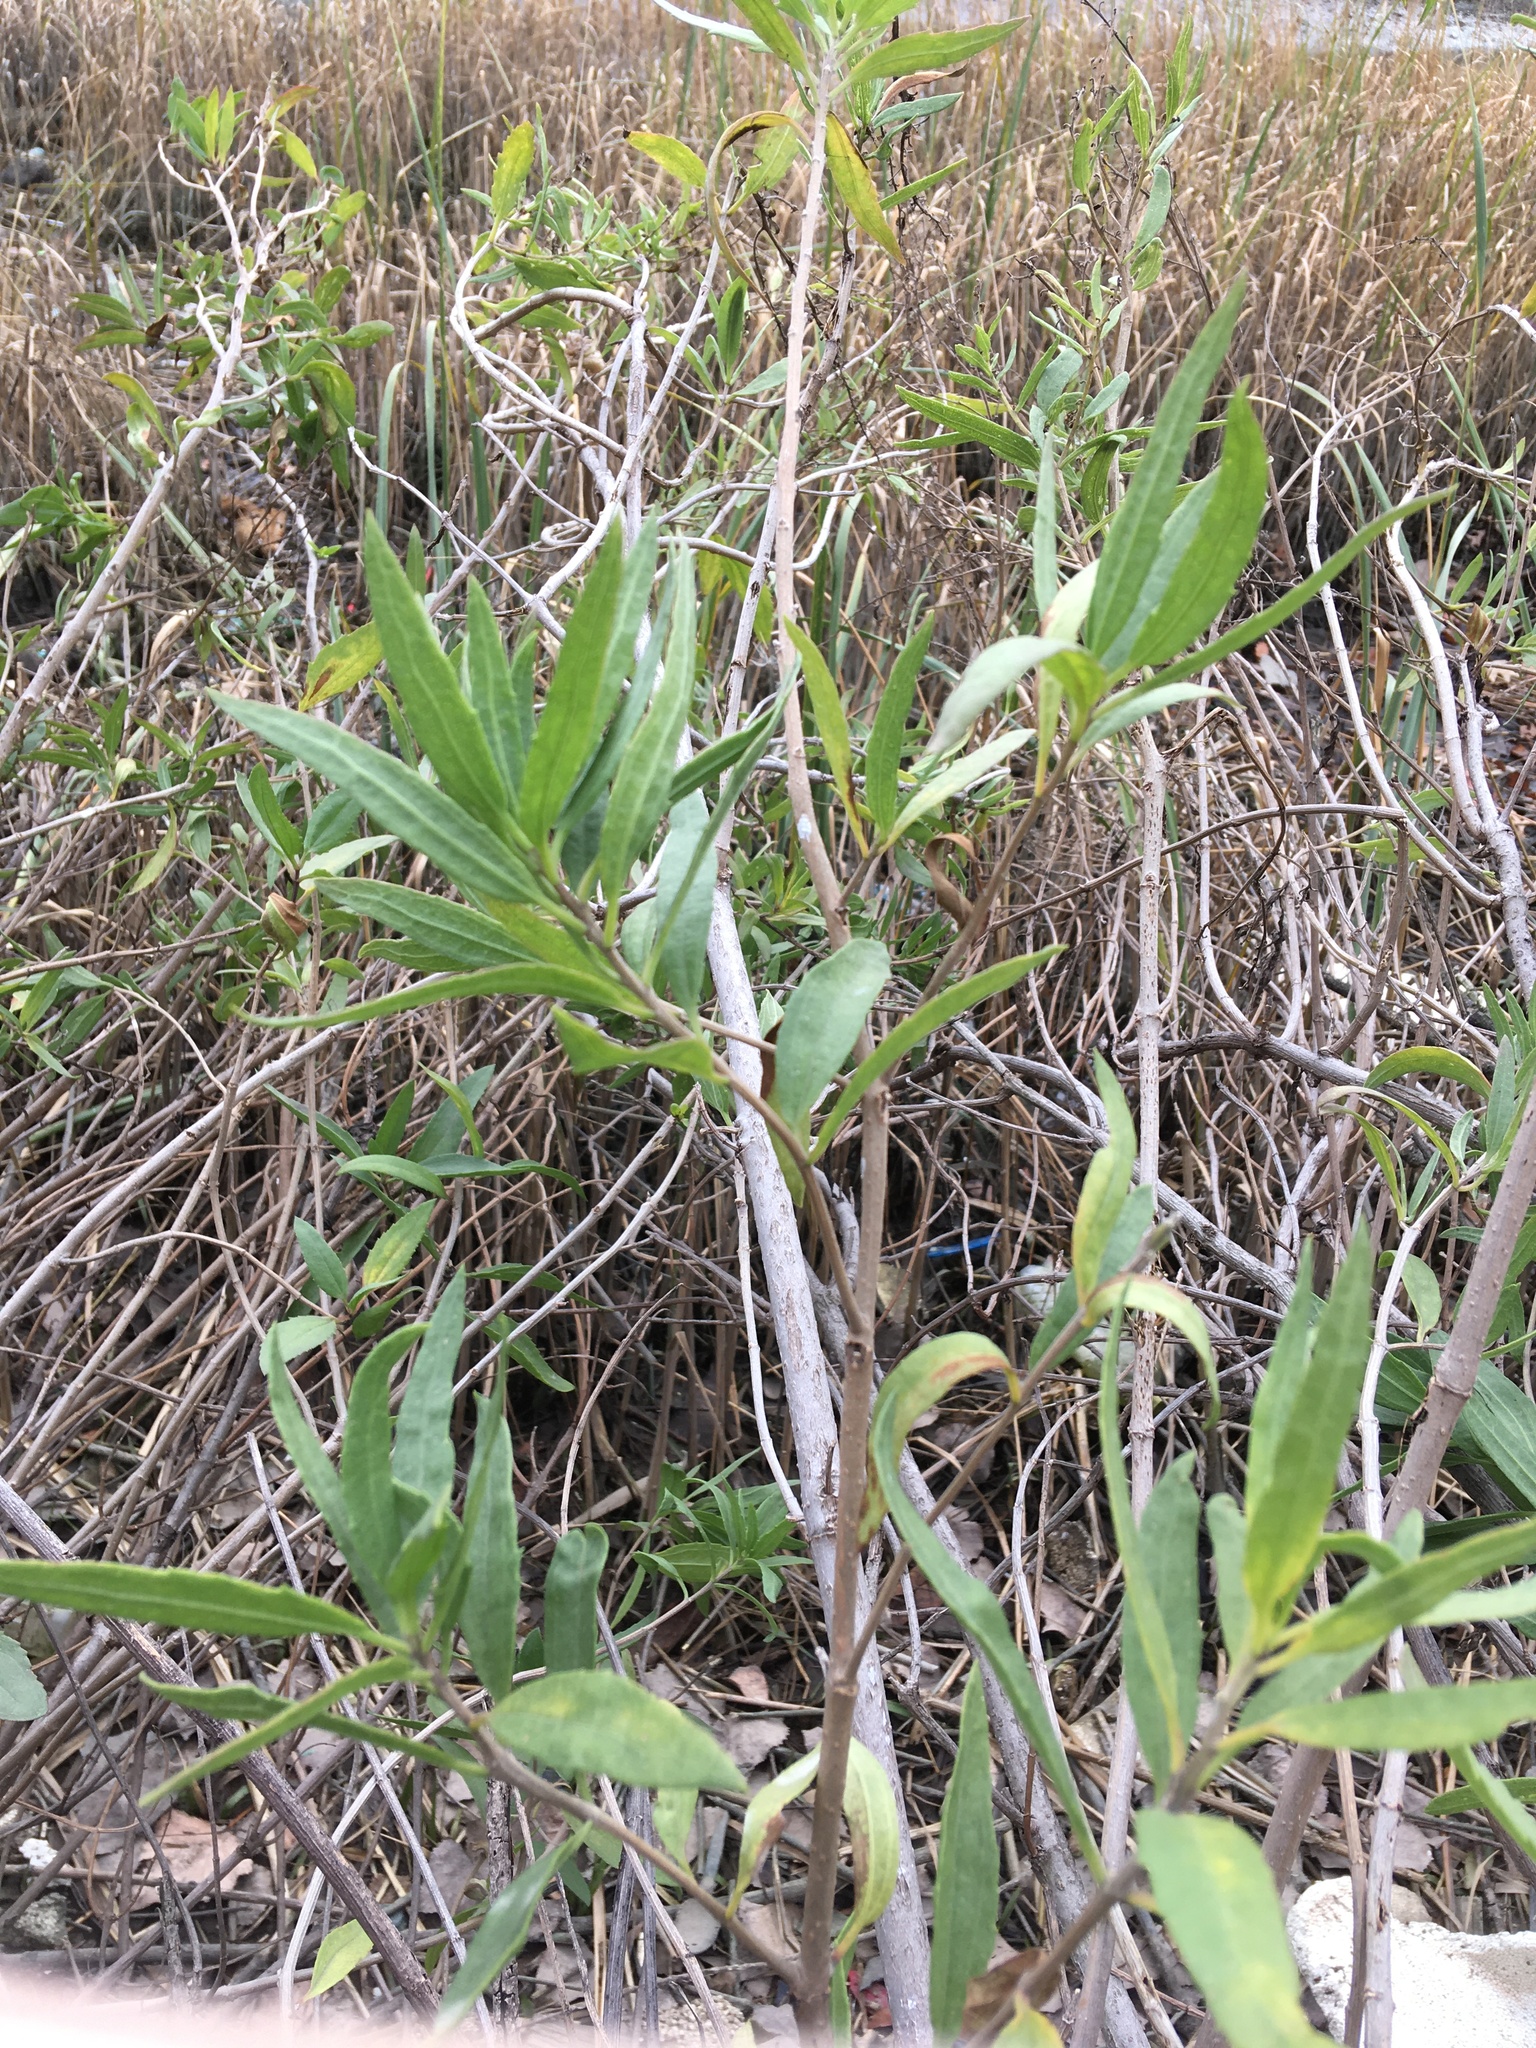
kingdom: Plantae
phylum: Tracheophyta
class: Magnoliopsida
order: Asterales
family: Asteraceae
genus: Iva
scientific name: Iva frutescens
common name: Big-leaved marsh-elder
